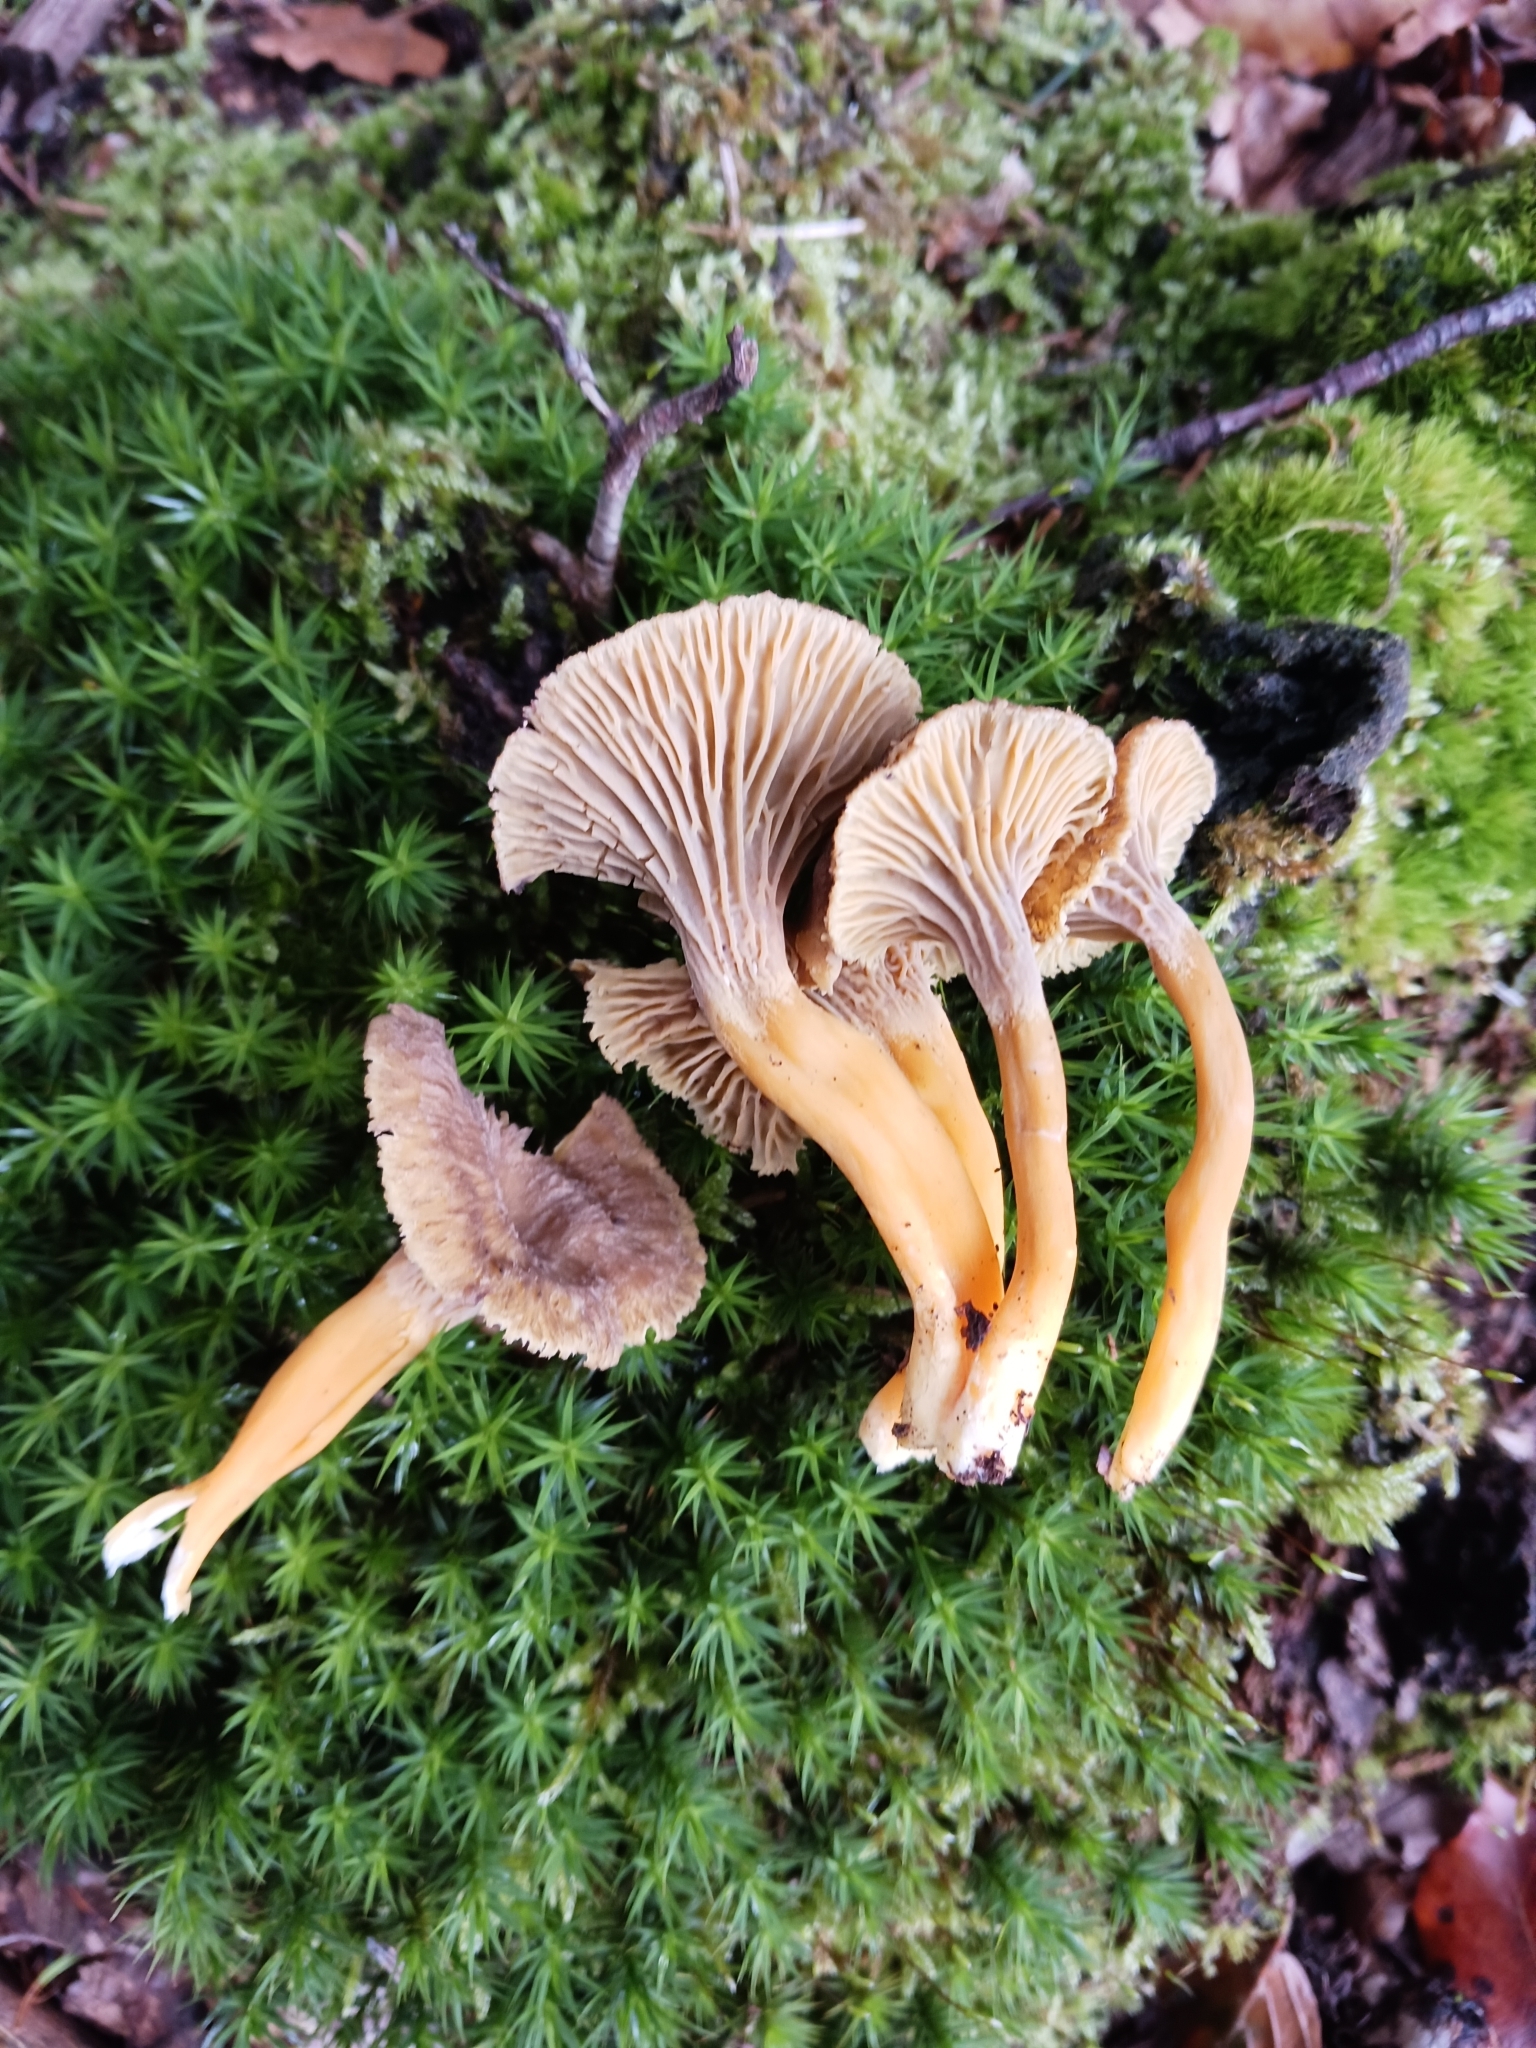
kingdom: Fungi
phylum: Basidiomycota
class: Agaricomycetes
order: Cantharellales
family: Hydnaceae
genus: Craterellus
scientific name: Craterellus tubaeformis
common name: Yellowfoot
